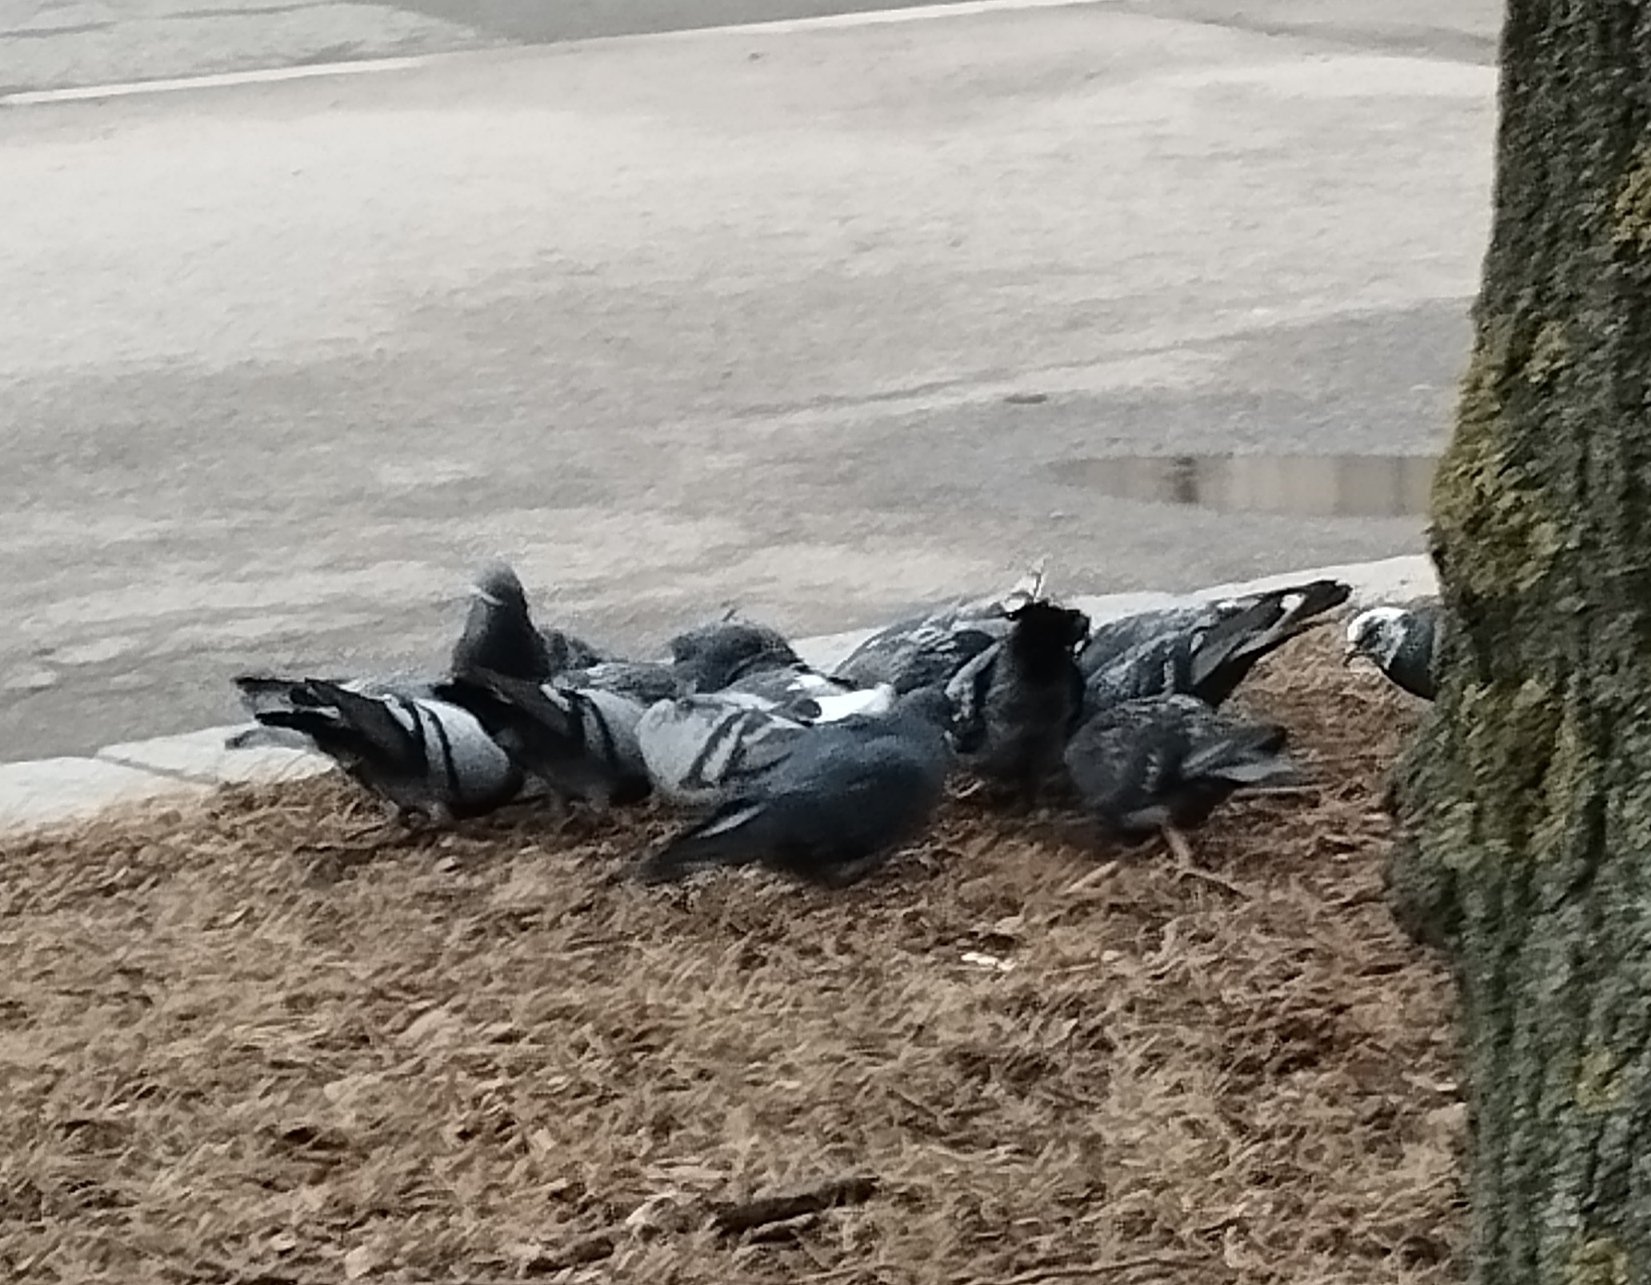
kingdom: Animalia
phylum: Chordata
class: Aves
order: Columbiformes
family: Columbidae
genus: Columba
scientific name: Columba livia
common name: Rock pigeon
